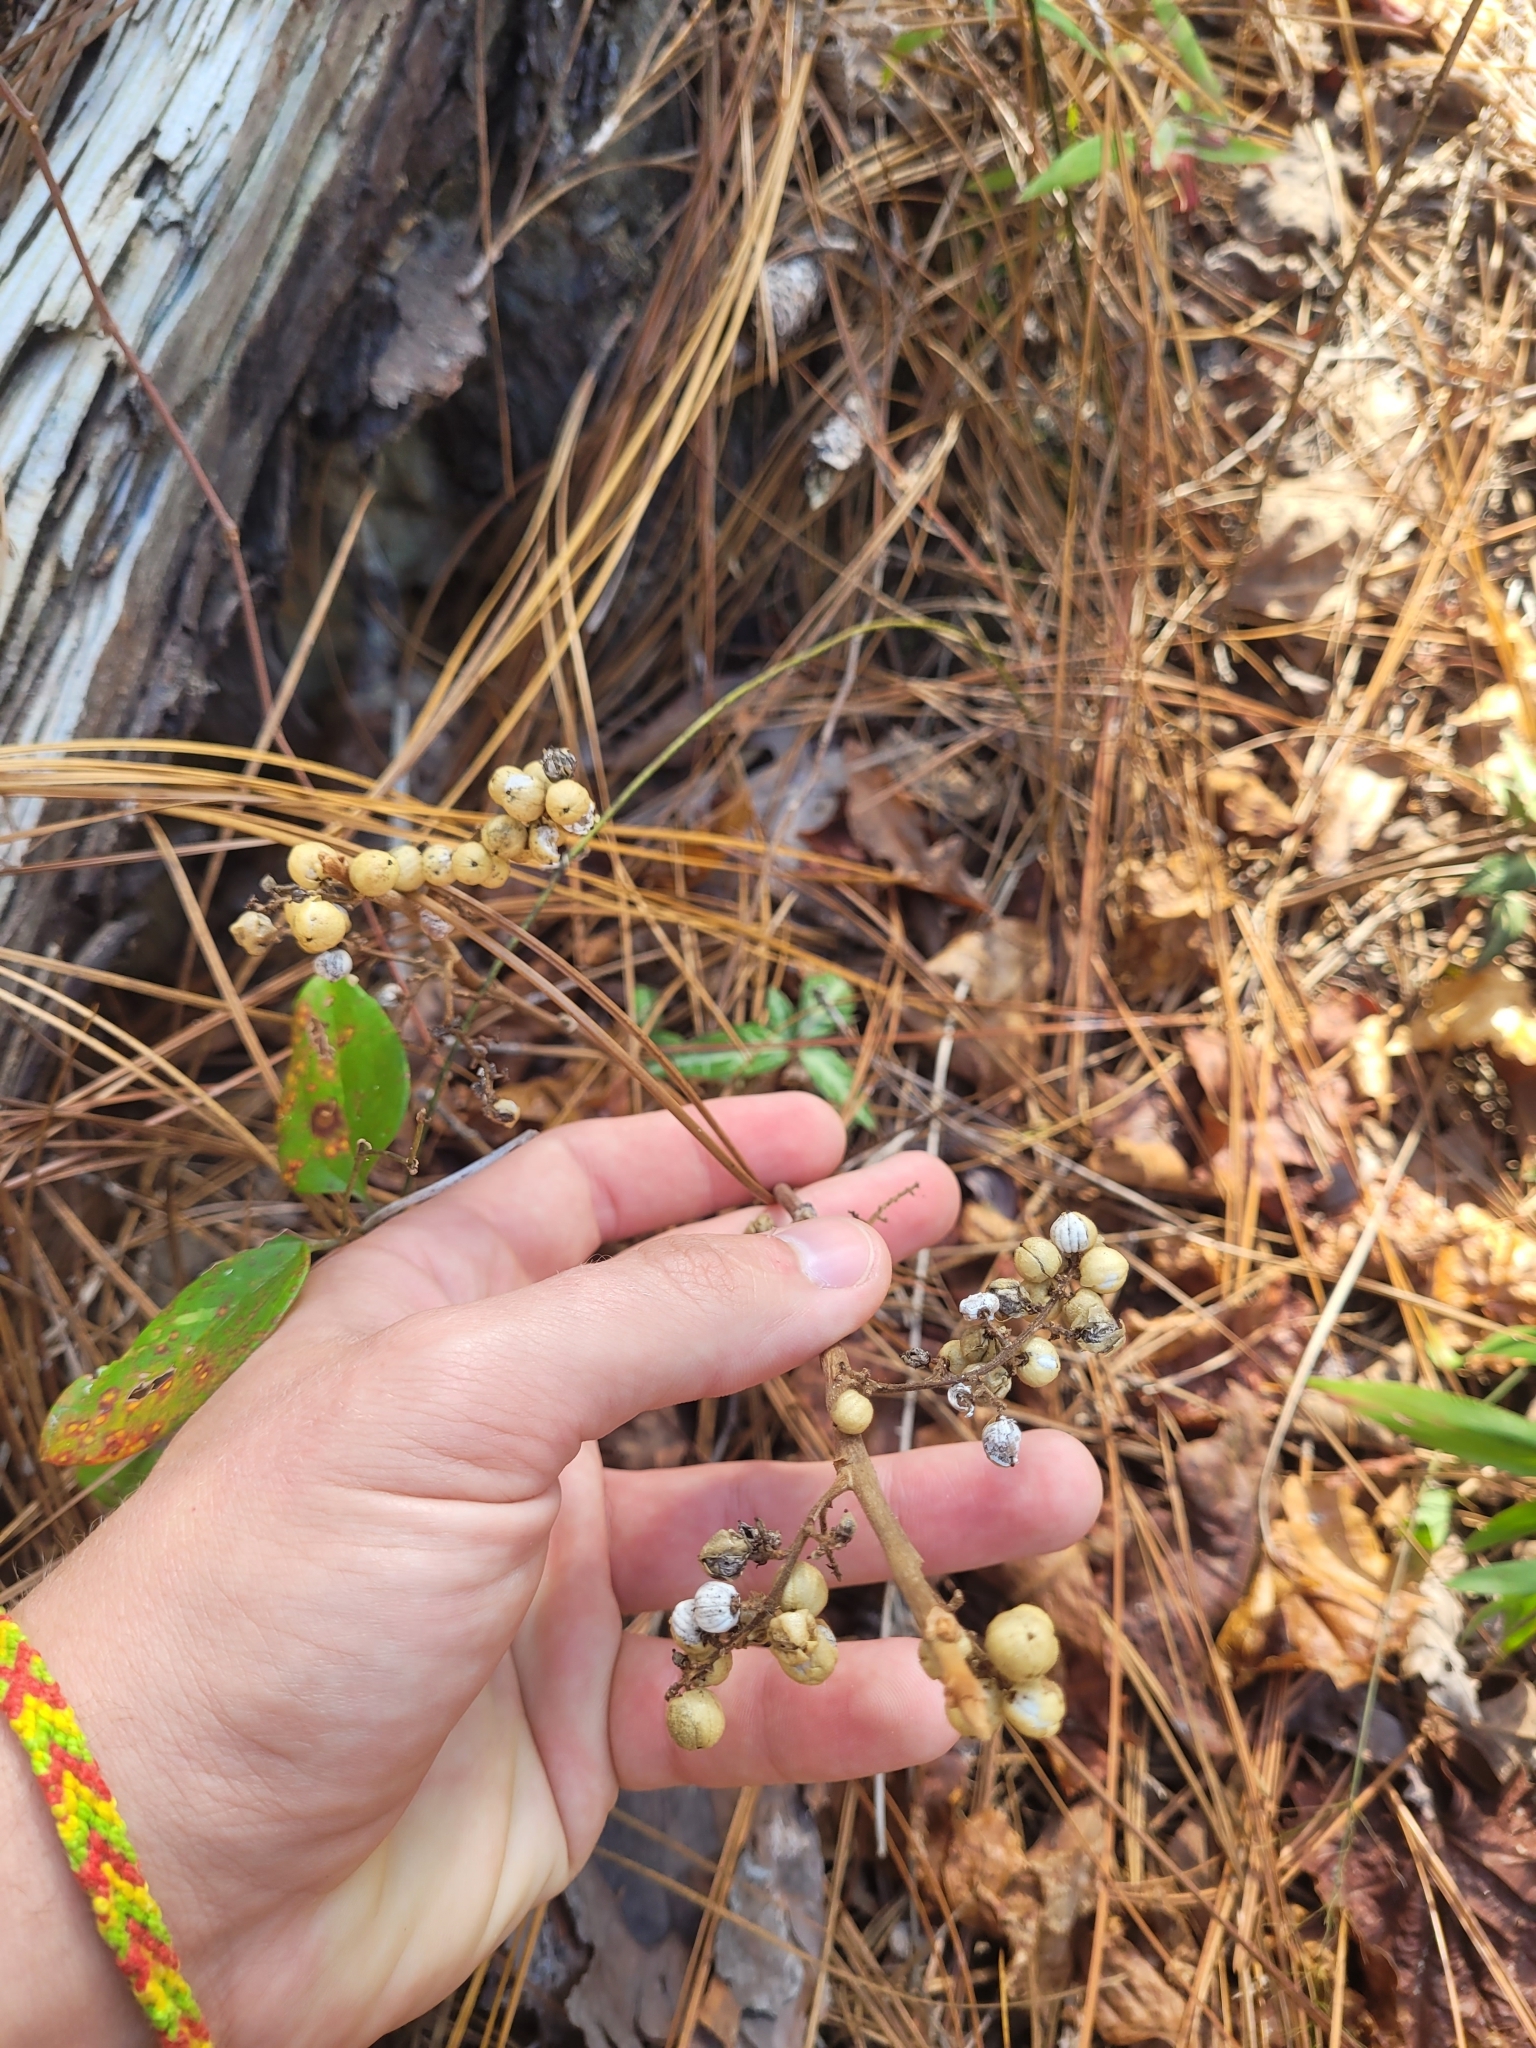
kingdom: Plantae
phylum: Tracheophyta
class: Magnoliopsida
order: Ericales
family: Ericaceae
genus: Chimaphila
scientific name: Chimaphila maculata
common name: Spotted pipsissewa
